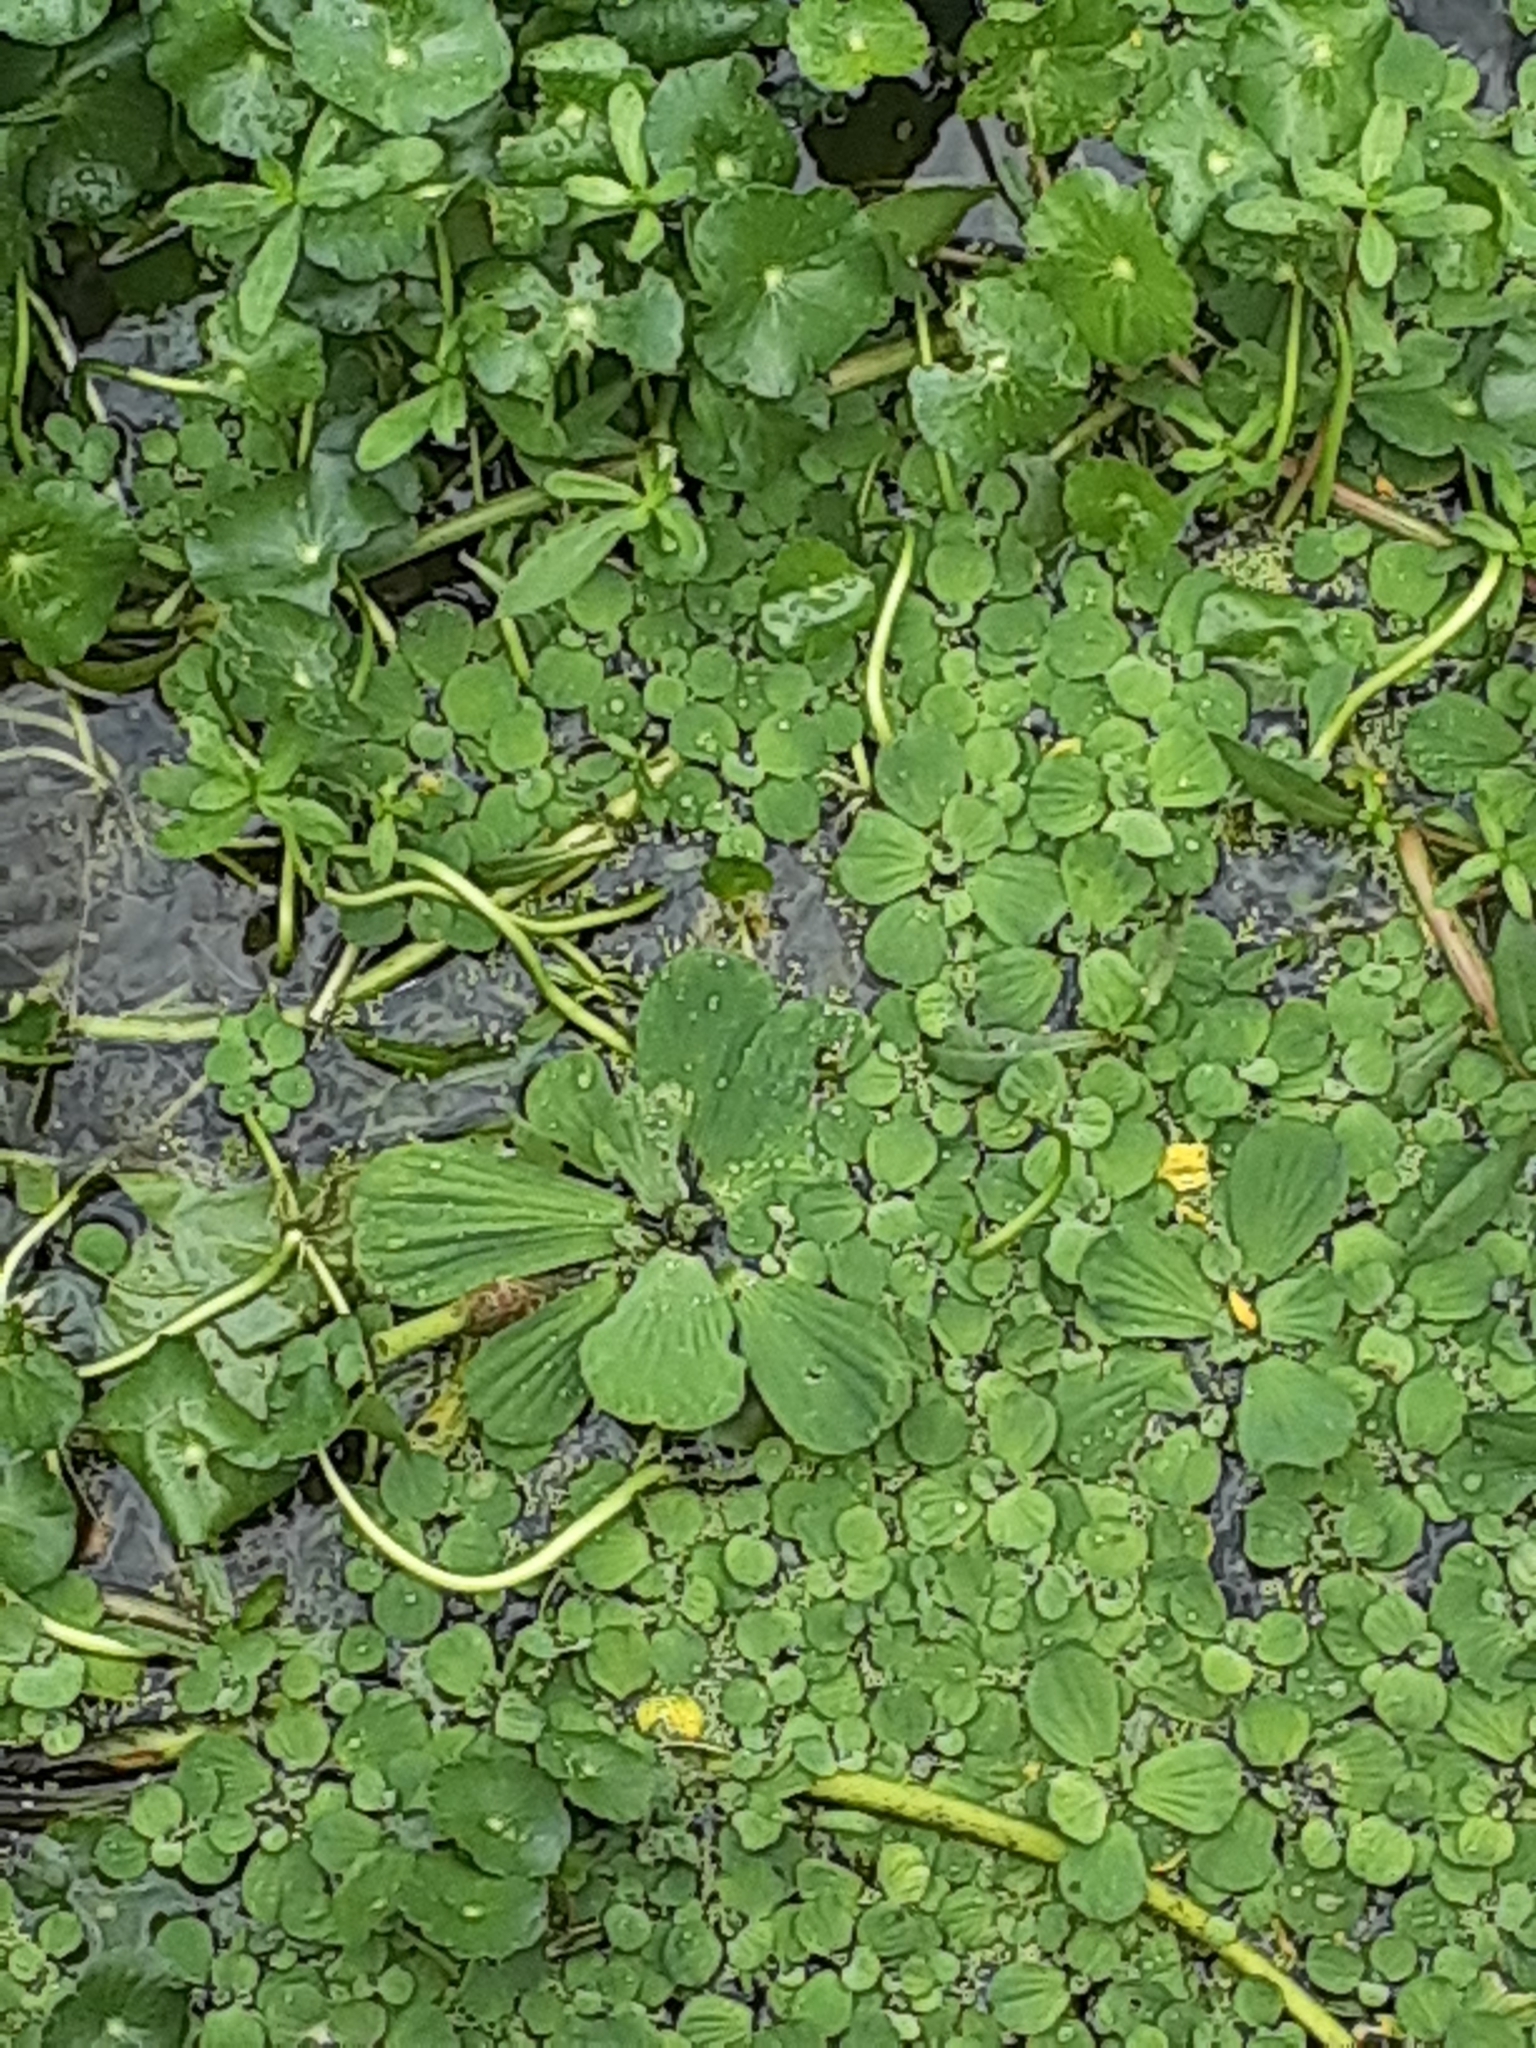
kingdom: Plantae
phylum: Tracheophyta
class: Liliopsida
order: Alismatales
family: Araceae
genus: Pistia
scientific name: Pistia stratiotes
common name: Water lettuce
